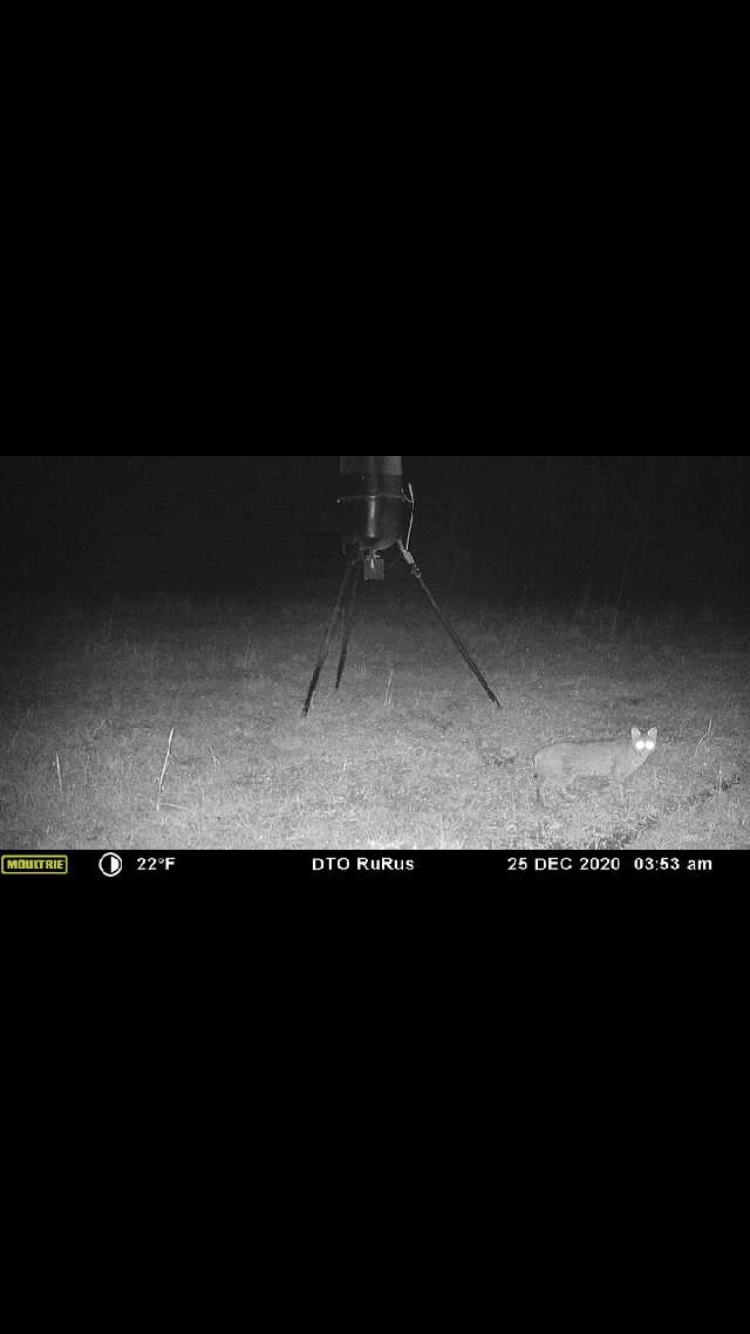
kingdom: Animalia
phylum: Chordata
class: Mammalia
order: Carnivora
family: Felidae
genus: Lynx
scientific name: Lynx rufus
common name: Bobcat
